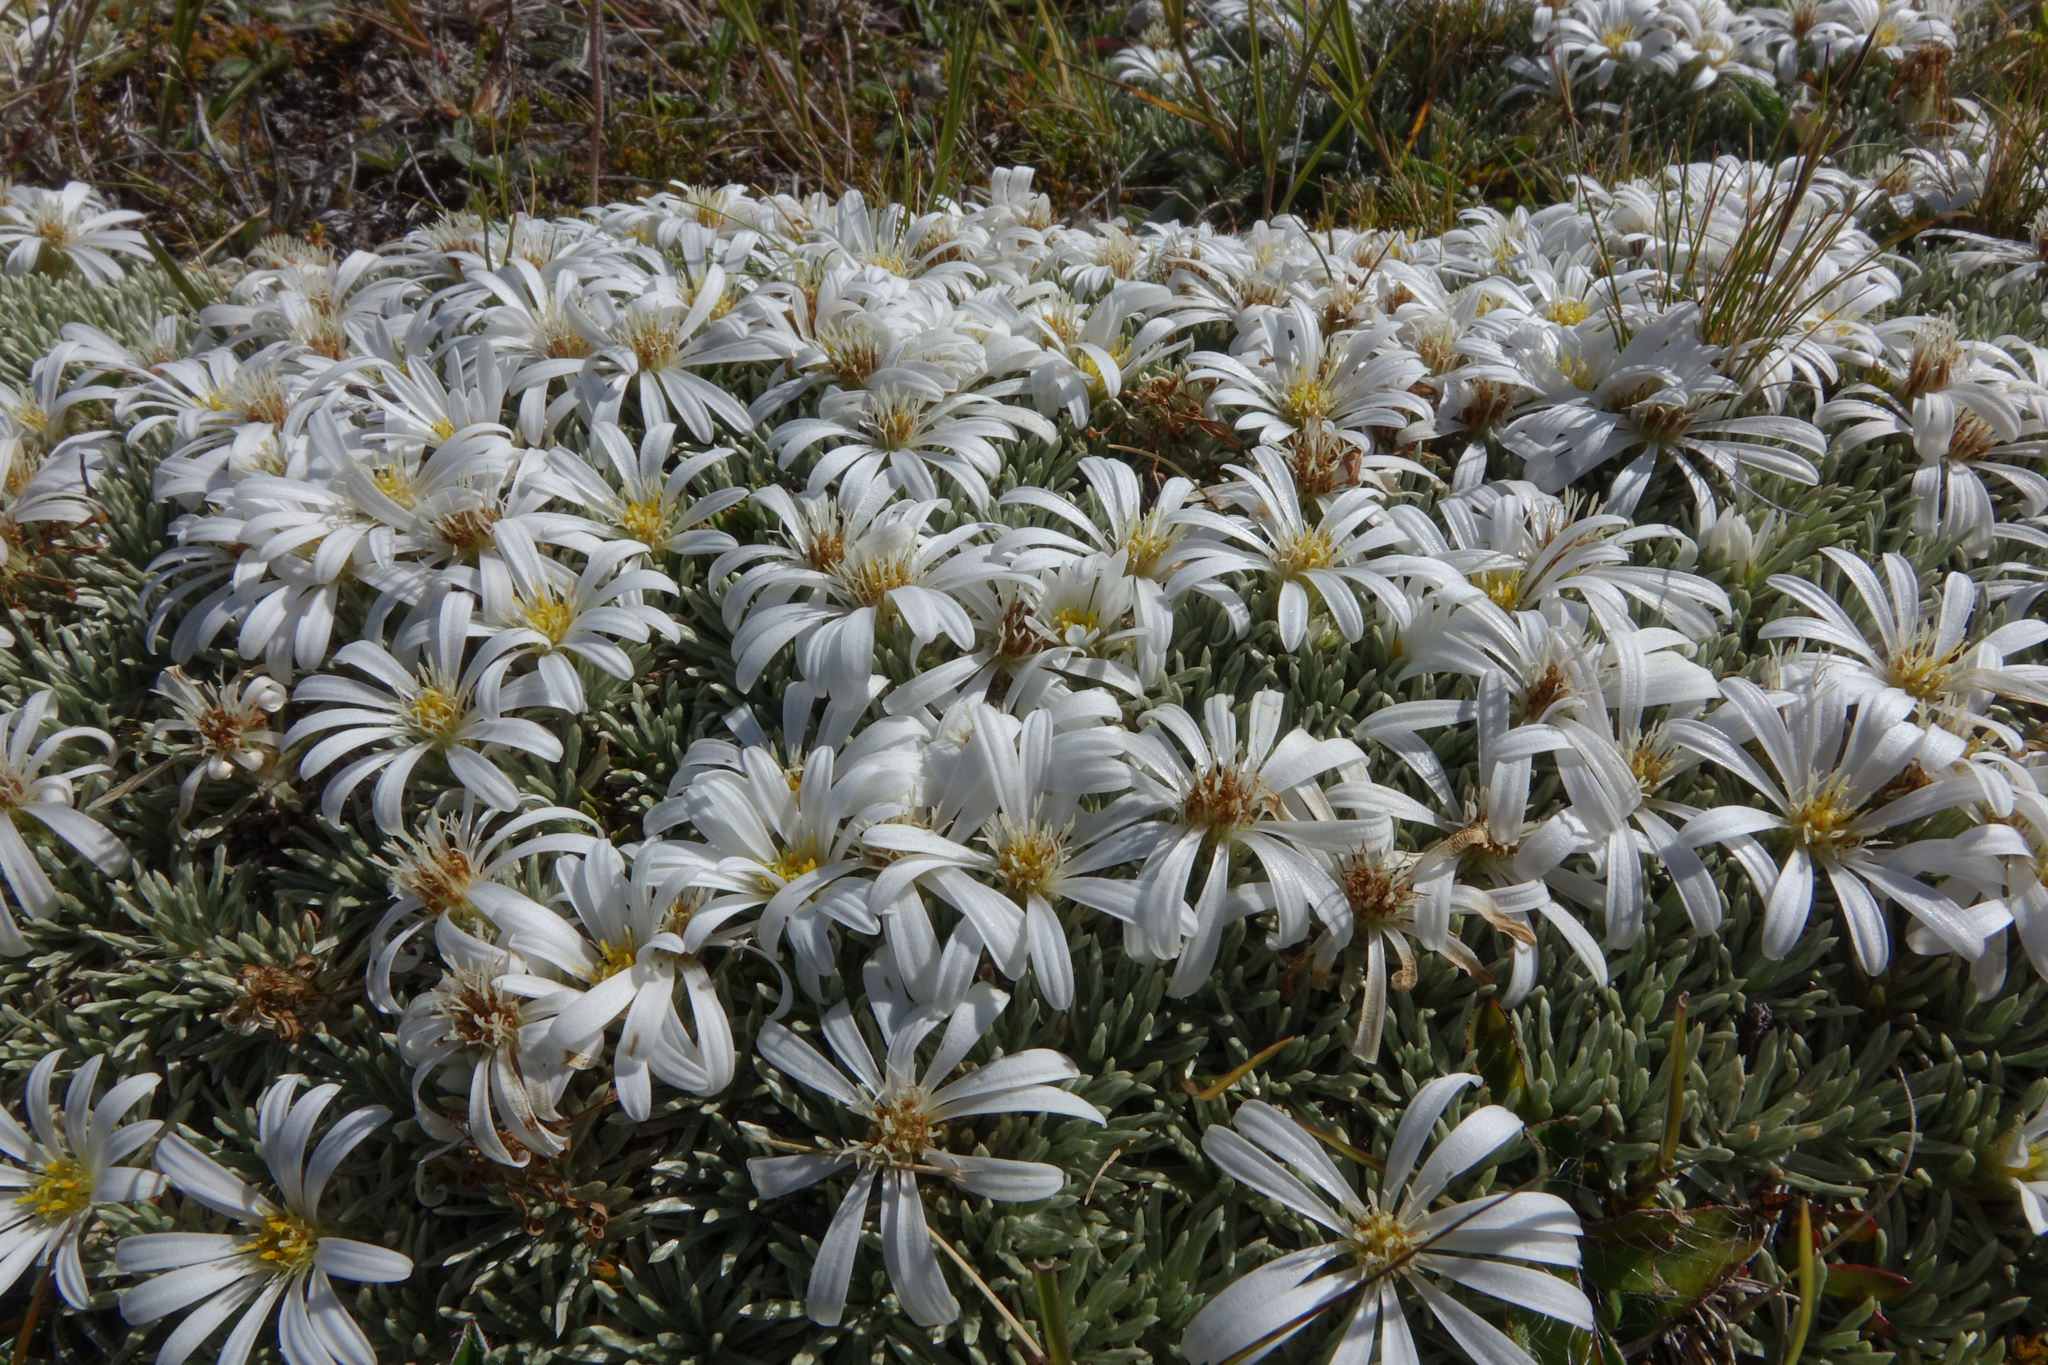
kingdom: Plantae
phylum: Tracheophyta
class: Magnoliopsida
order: Asterales
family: Asteraceae
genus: Celmisia
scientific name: Celmisia sessiliflora
